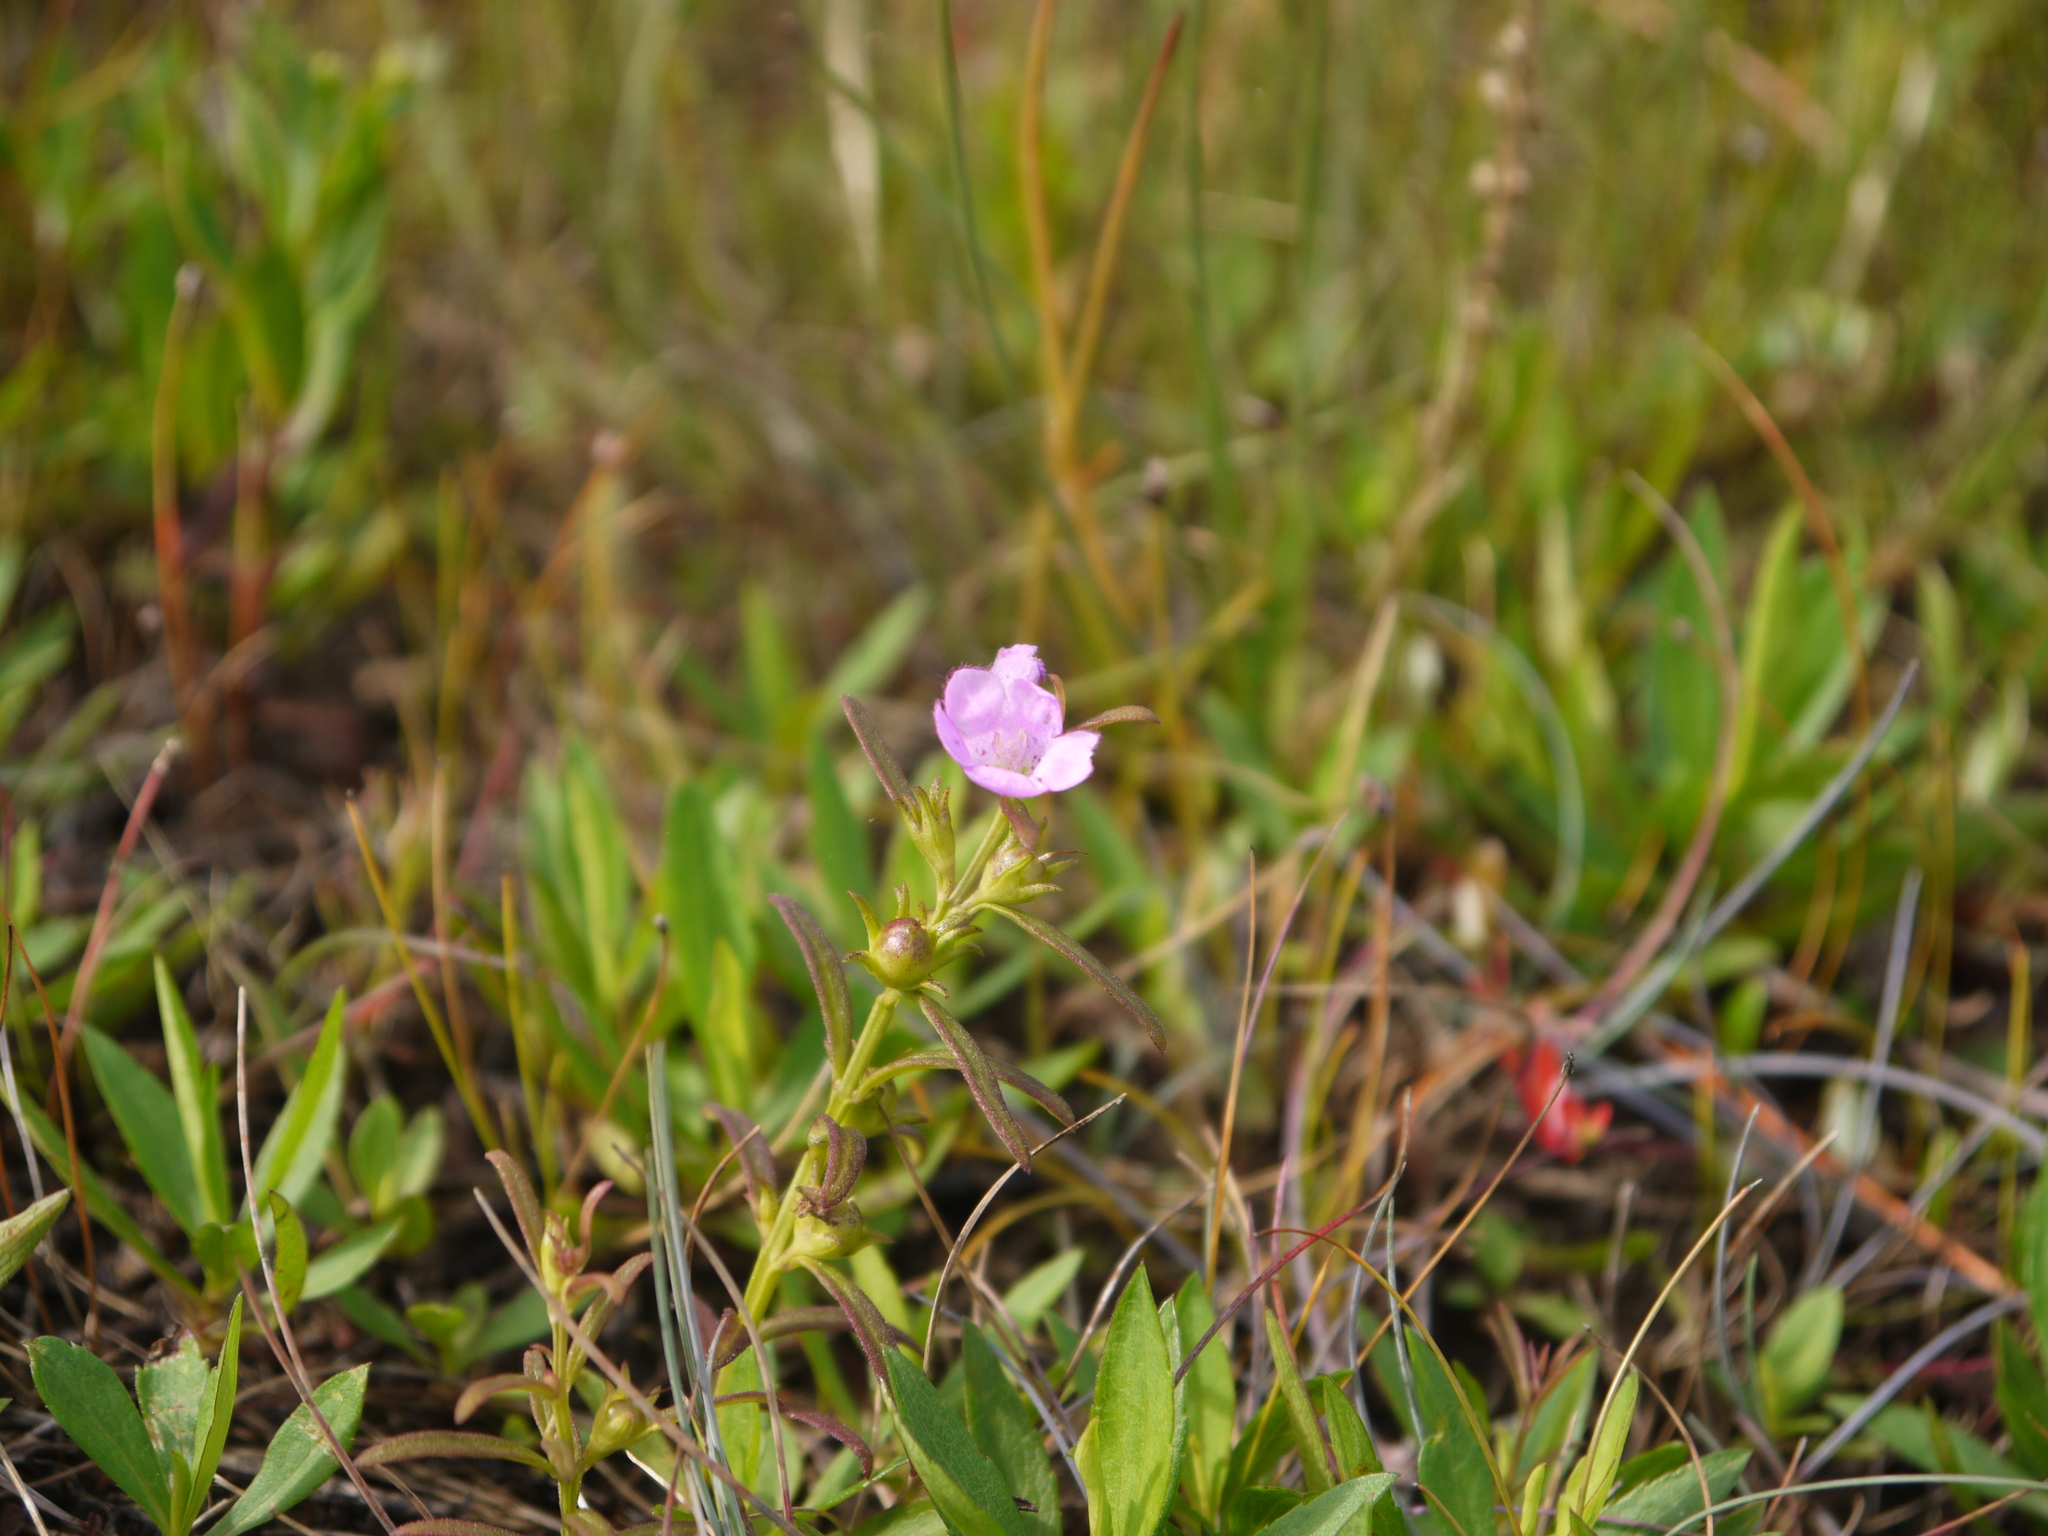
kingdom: Plantae
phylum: Tracheophyta
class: Magnoliopsida
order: Lamiales
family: Orobanchaceae
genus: Agalinis
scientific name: Agalinis neoscotica
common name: Middleton false foxglove
